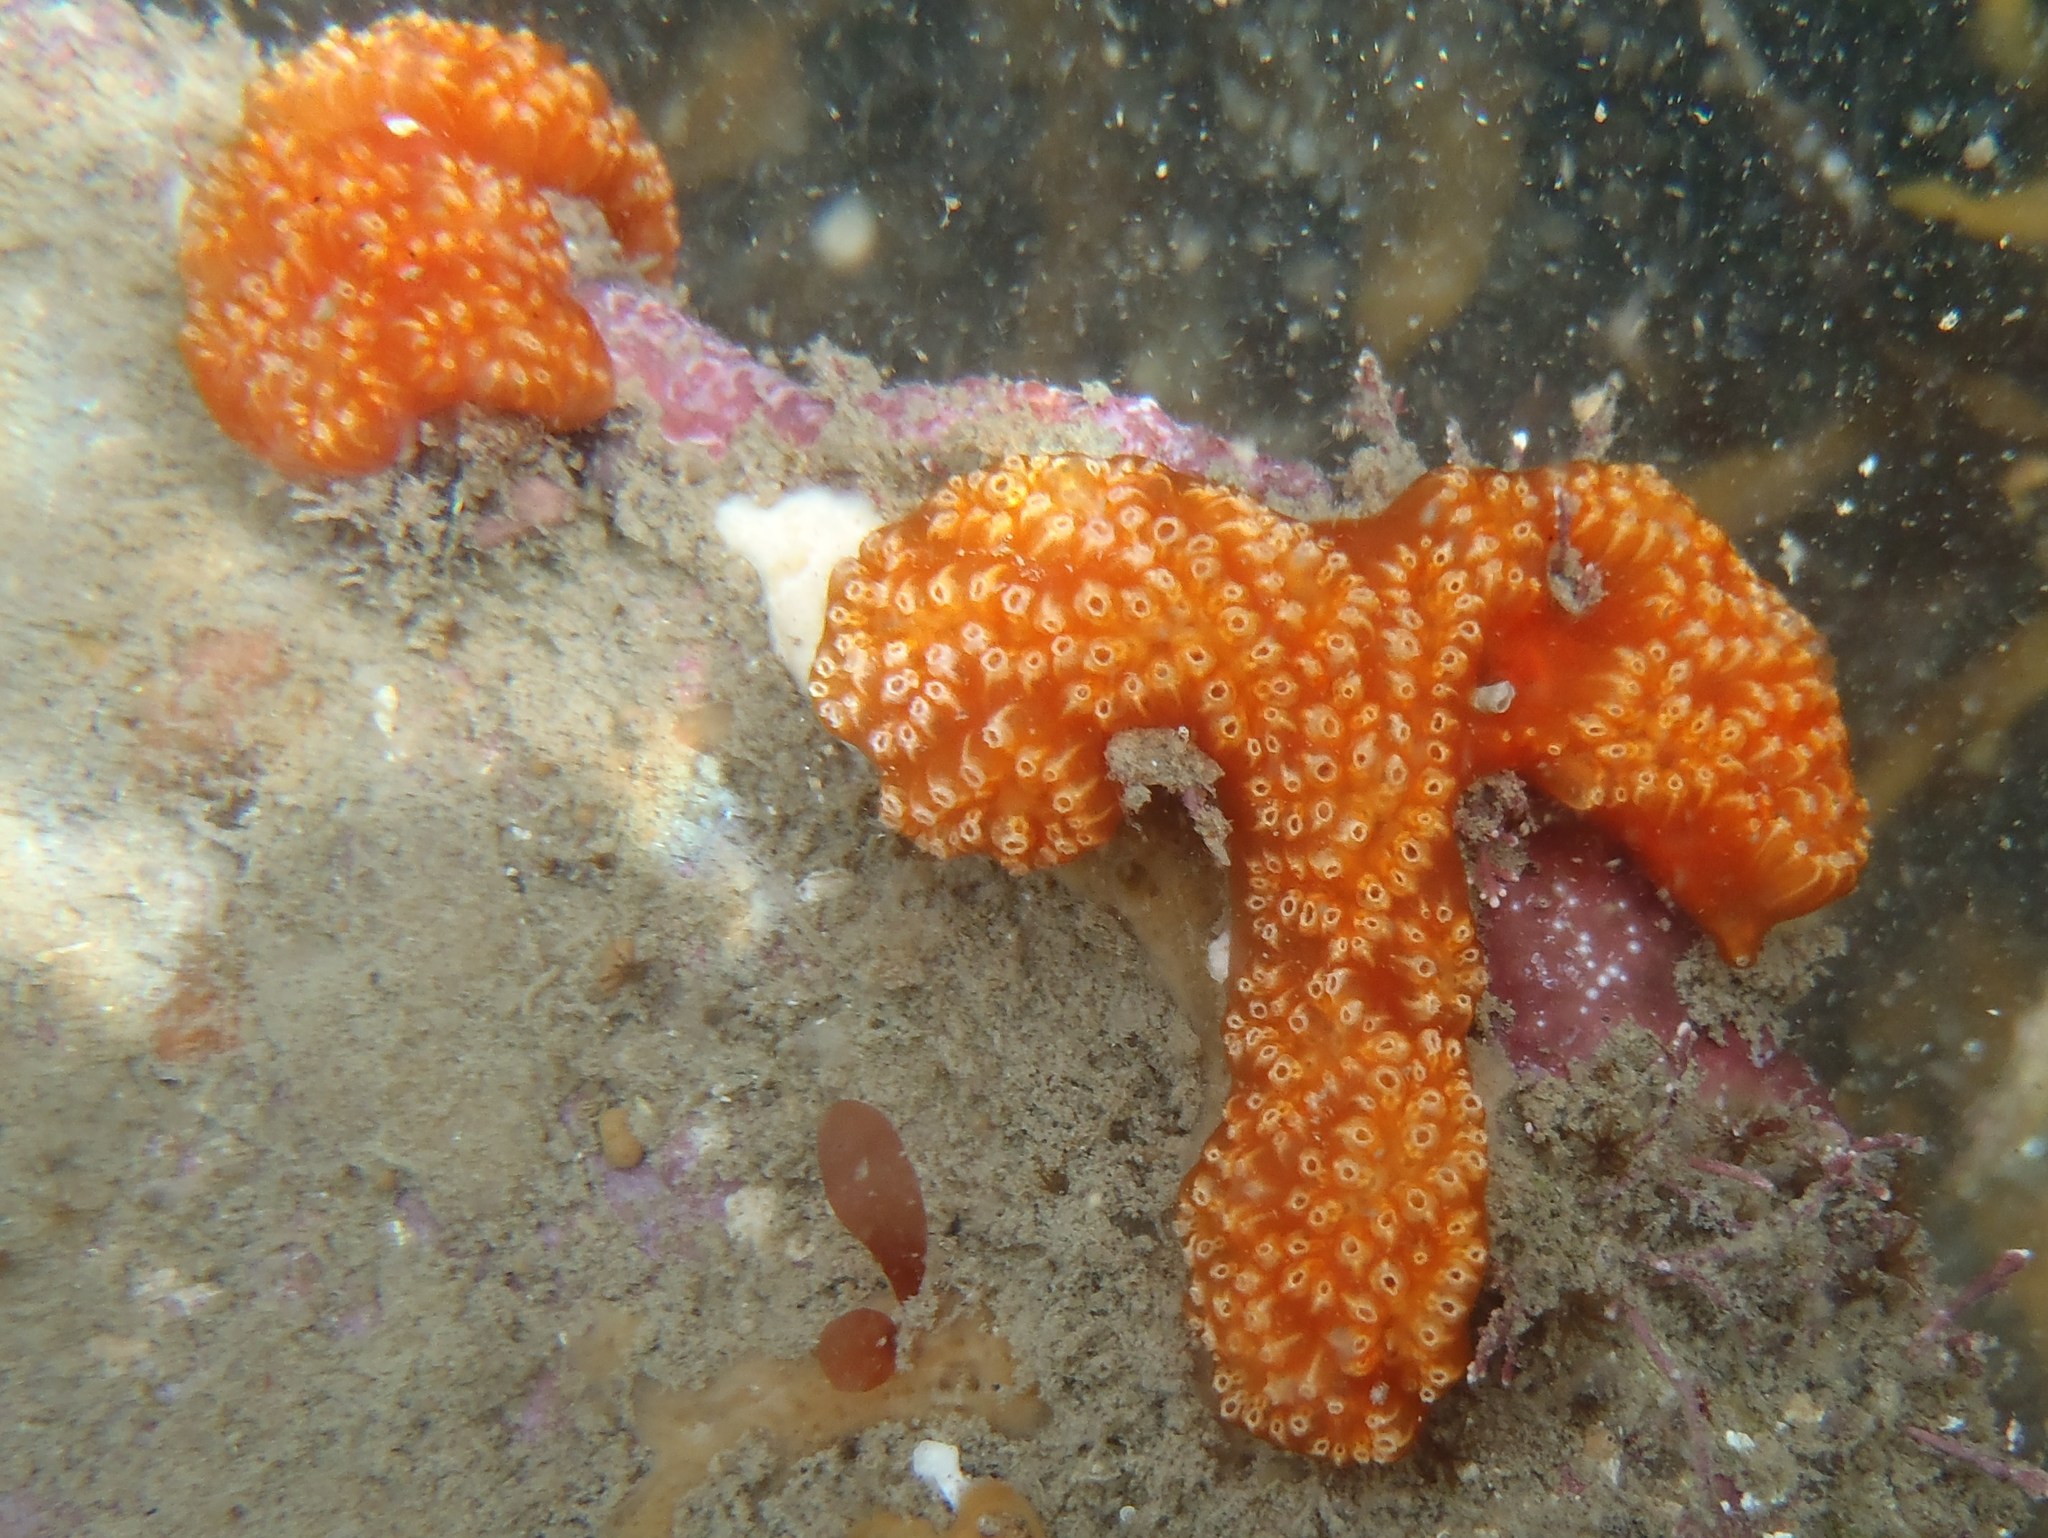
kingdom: Animalia
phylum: Chordata
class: Ascidiacea
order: Aplousobranchia
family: Polyclinidae
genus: Aplidium
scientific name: Aplidium benhami
